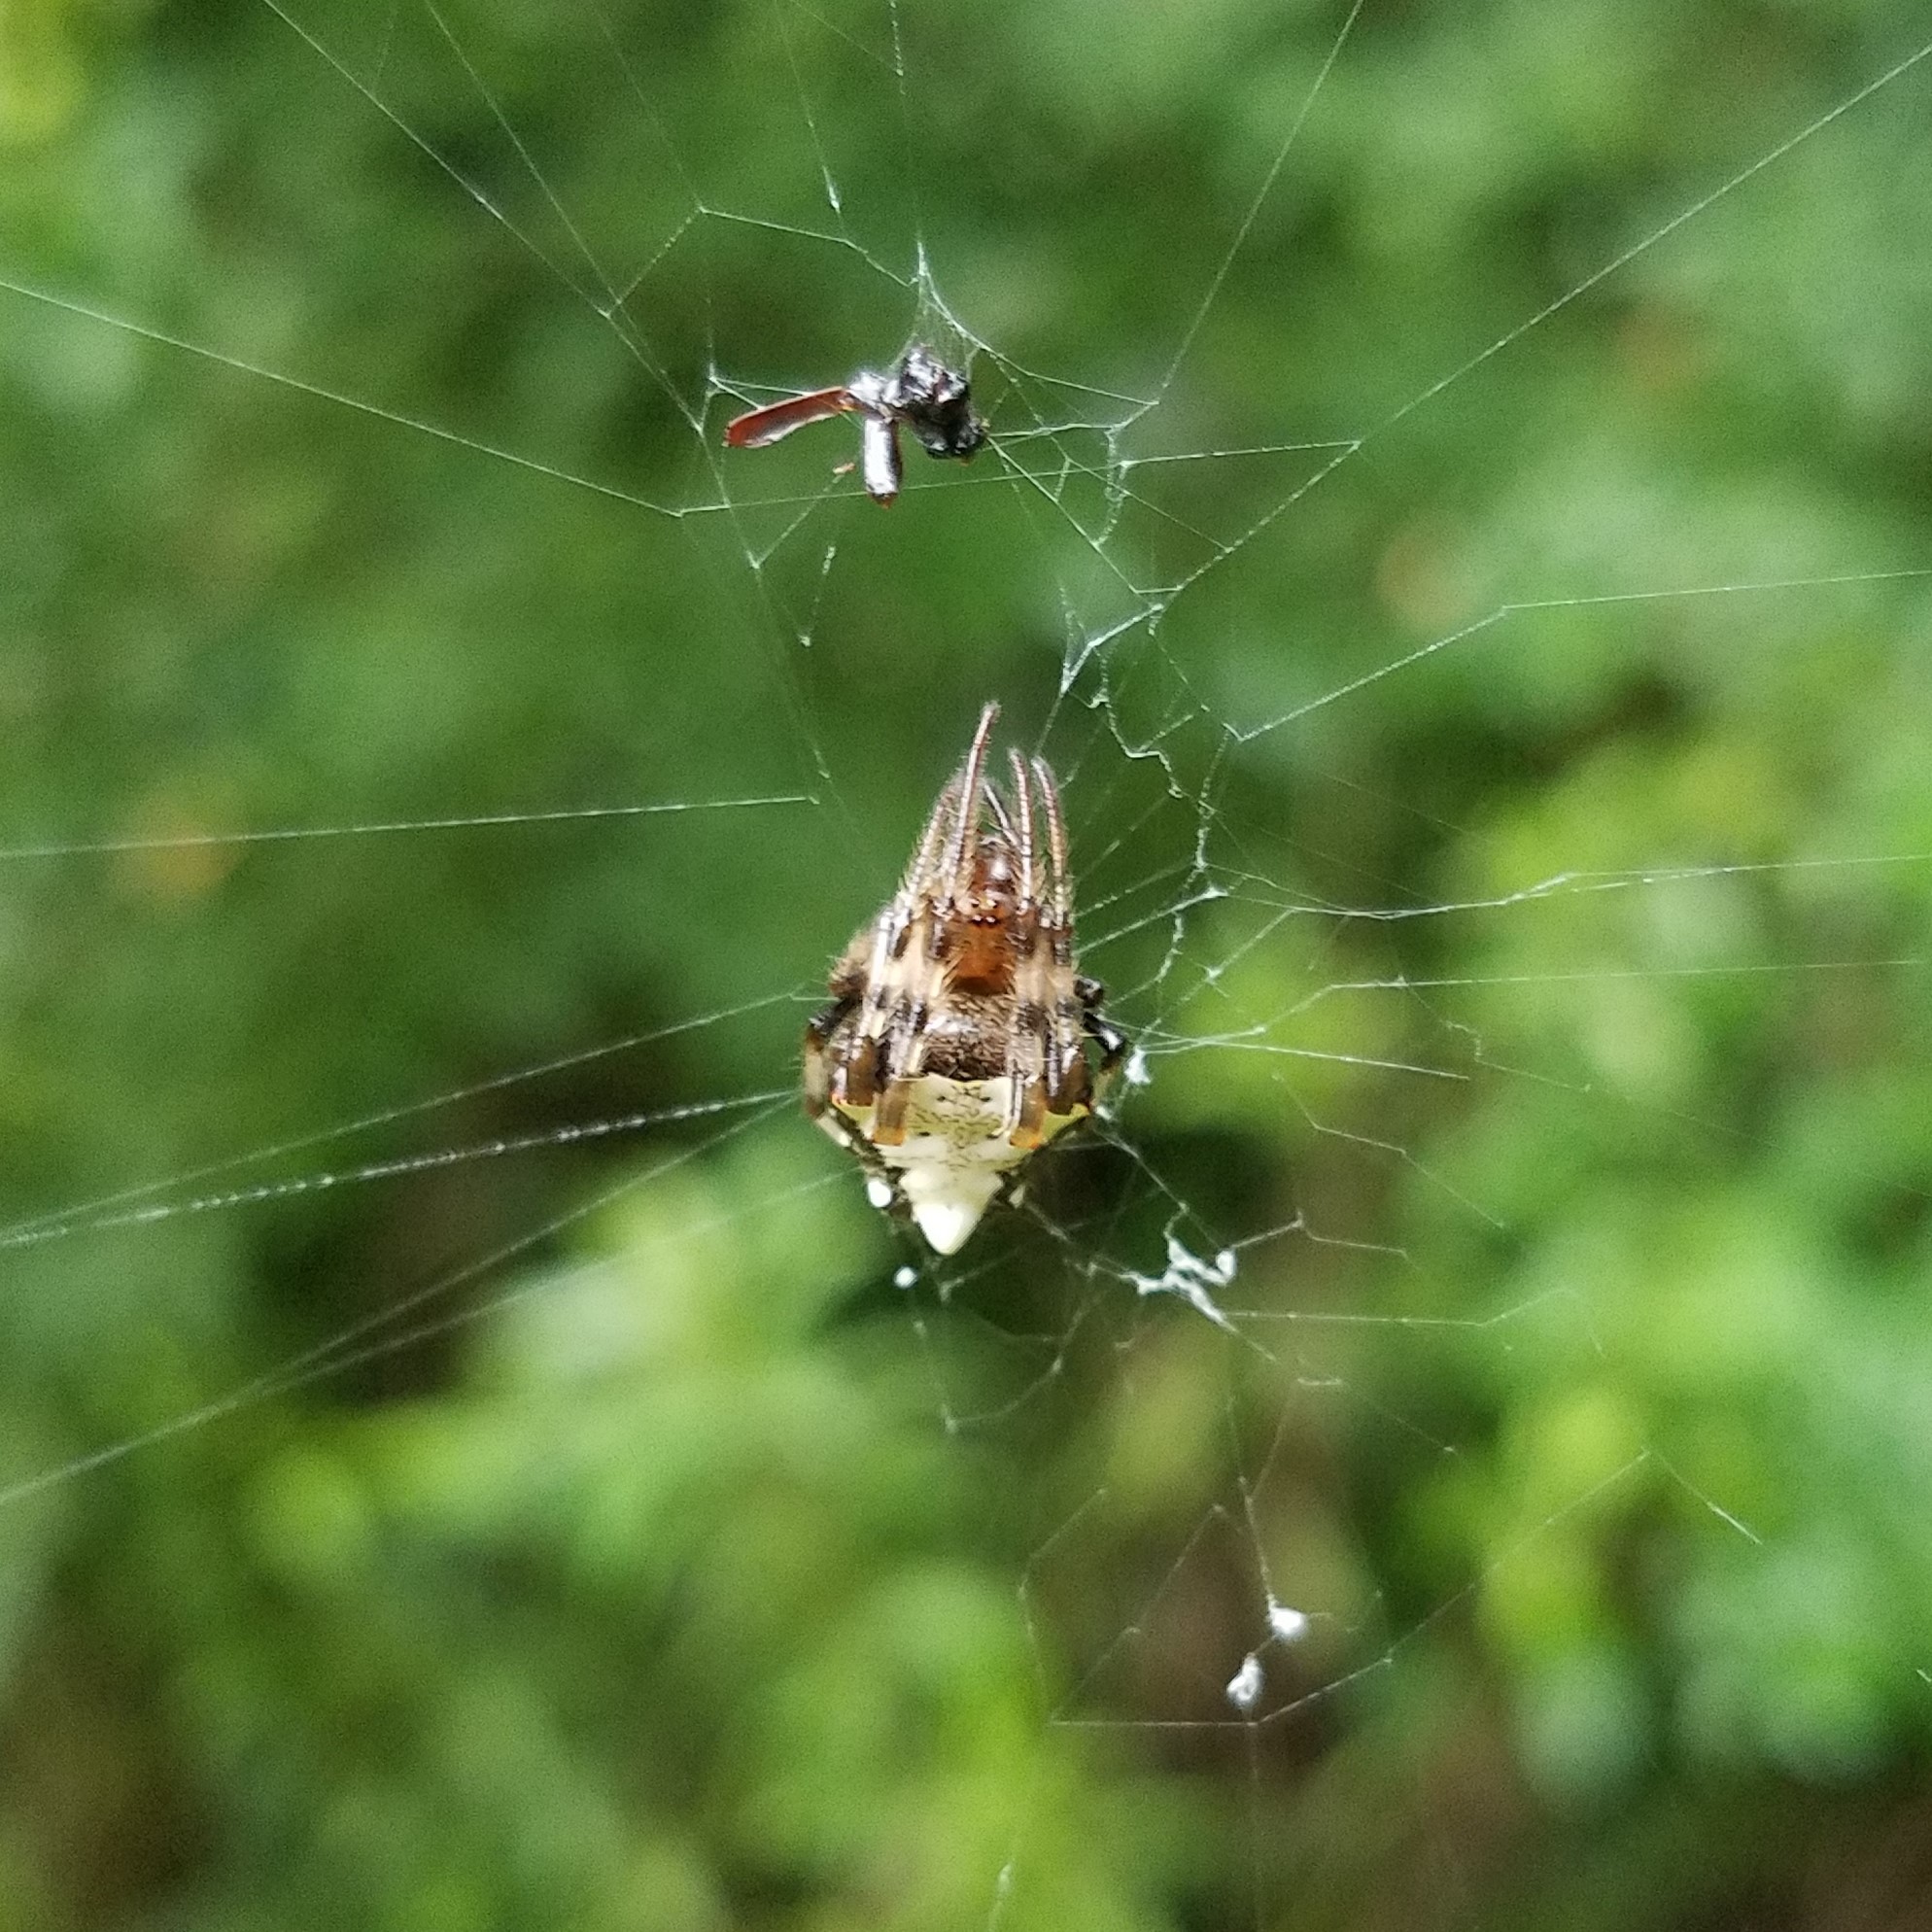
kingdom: Animalia
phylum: Arthropoda
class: Arachnida
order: Araneae
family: Araneidae
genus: Verrucosa
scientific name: Verrucosa arenata
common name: Orb weavers
